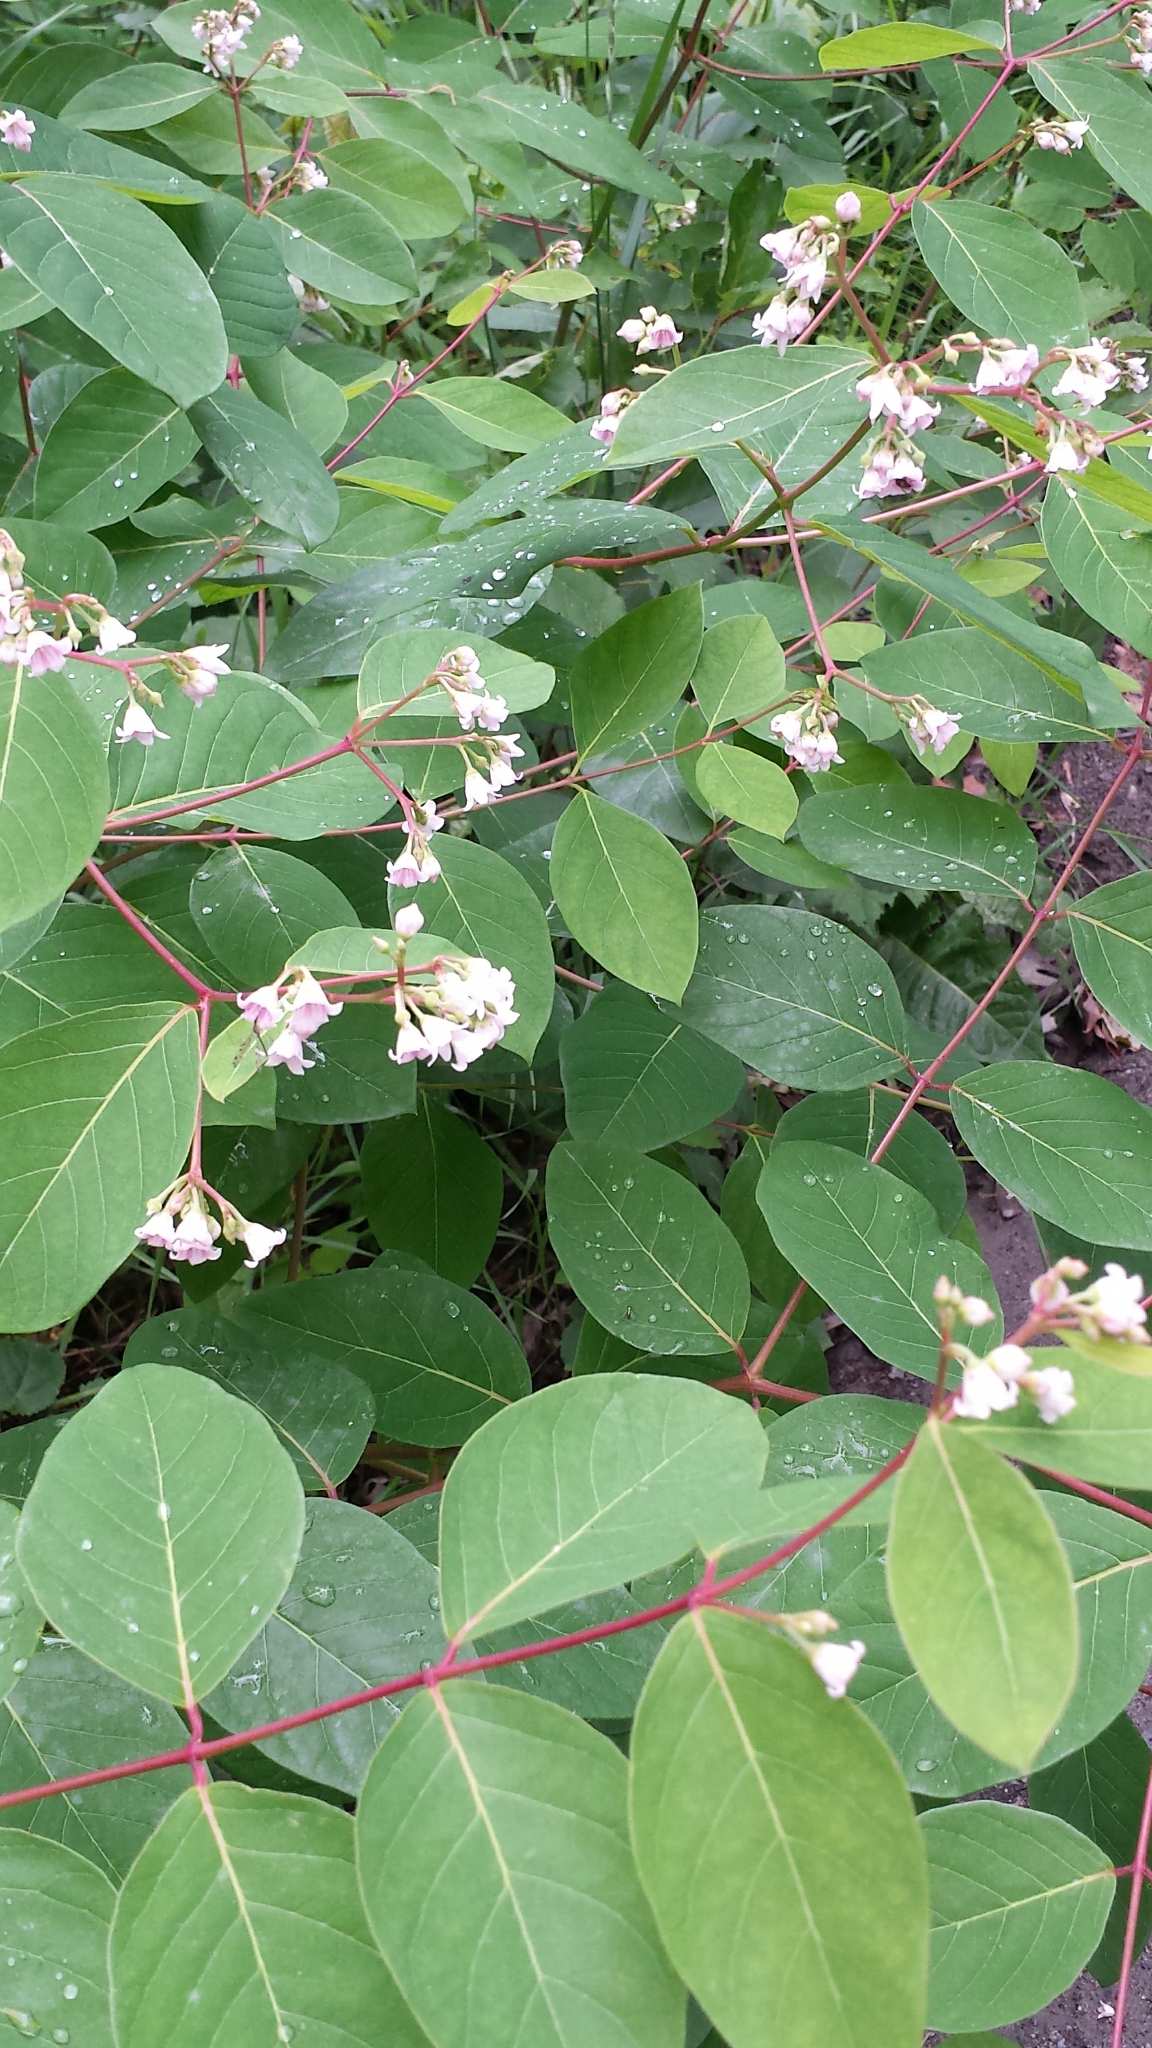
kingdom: Plantae
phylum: Tracheophyta
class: Magnoliopsida
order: Gentianales
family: Apocynaceae
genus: Apocynum
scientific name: Apocynum androsaemifolium
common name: Spreading dogbane
